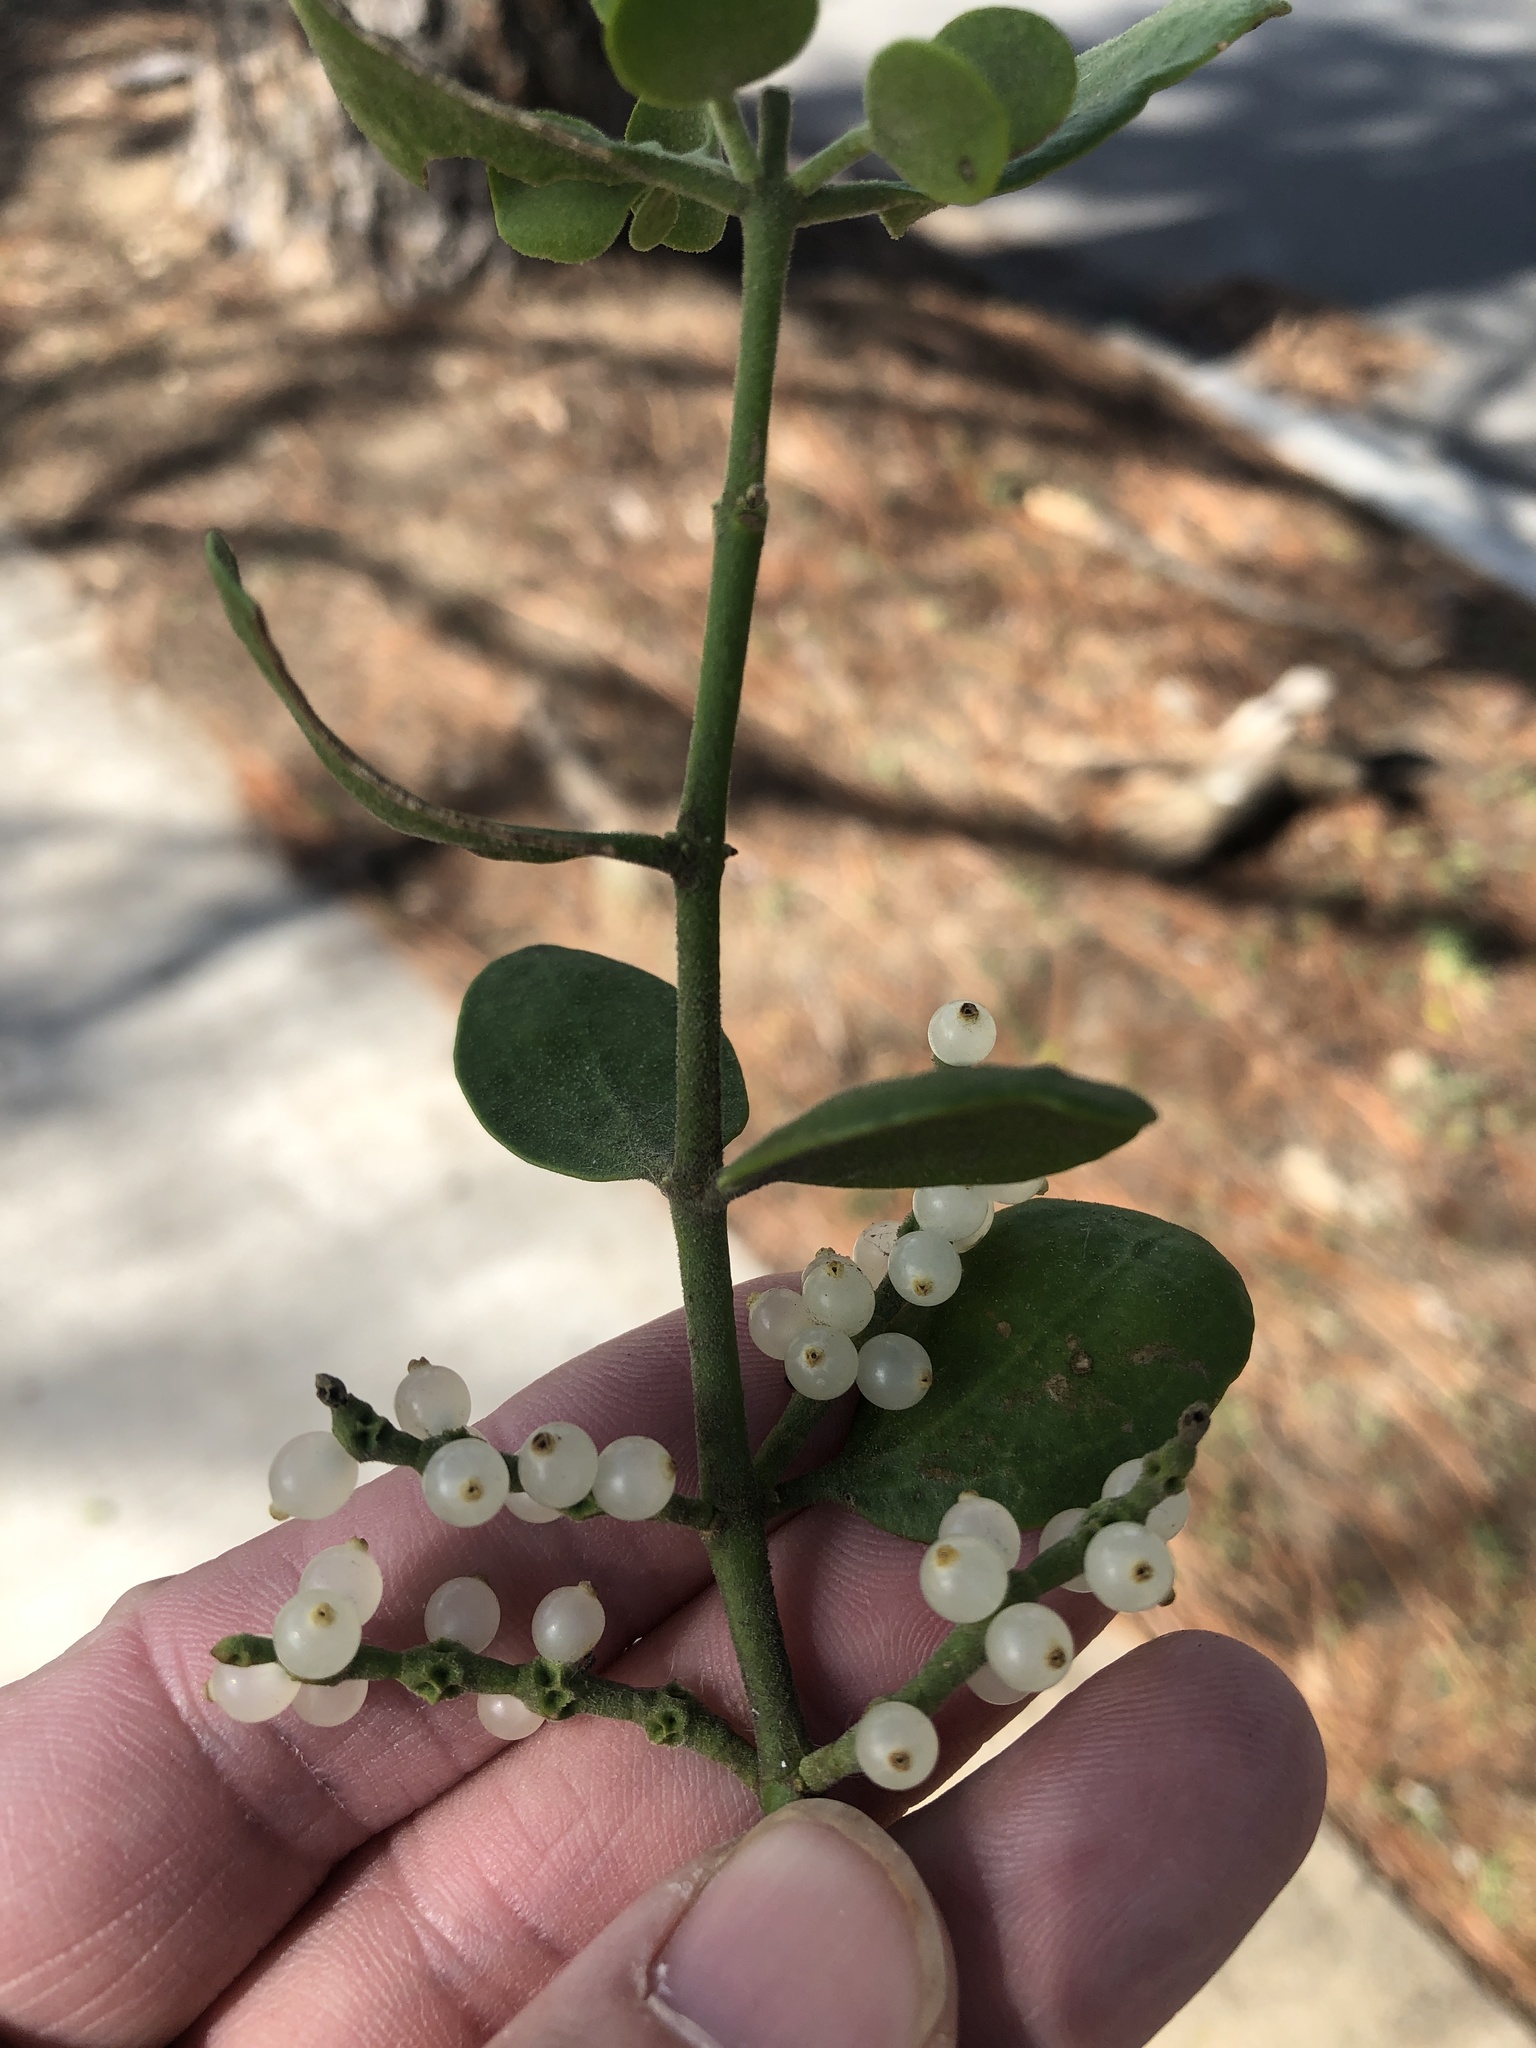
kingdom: Plantae
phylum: Tracheophyta
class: Magnoliopsida
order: Santalales
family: Viscaceae
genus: Phoradendron
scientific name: Phoradendron leucarpum
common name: Pacific mistletoe
